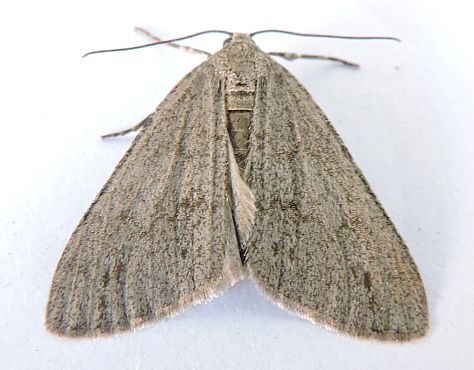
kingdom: Animalia
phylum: Arthropoda
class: Insecta
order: Lepidoptera
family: Geometridae
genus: Carphoides
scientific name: Carphoides inconspicuaria
